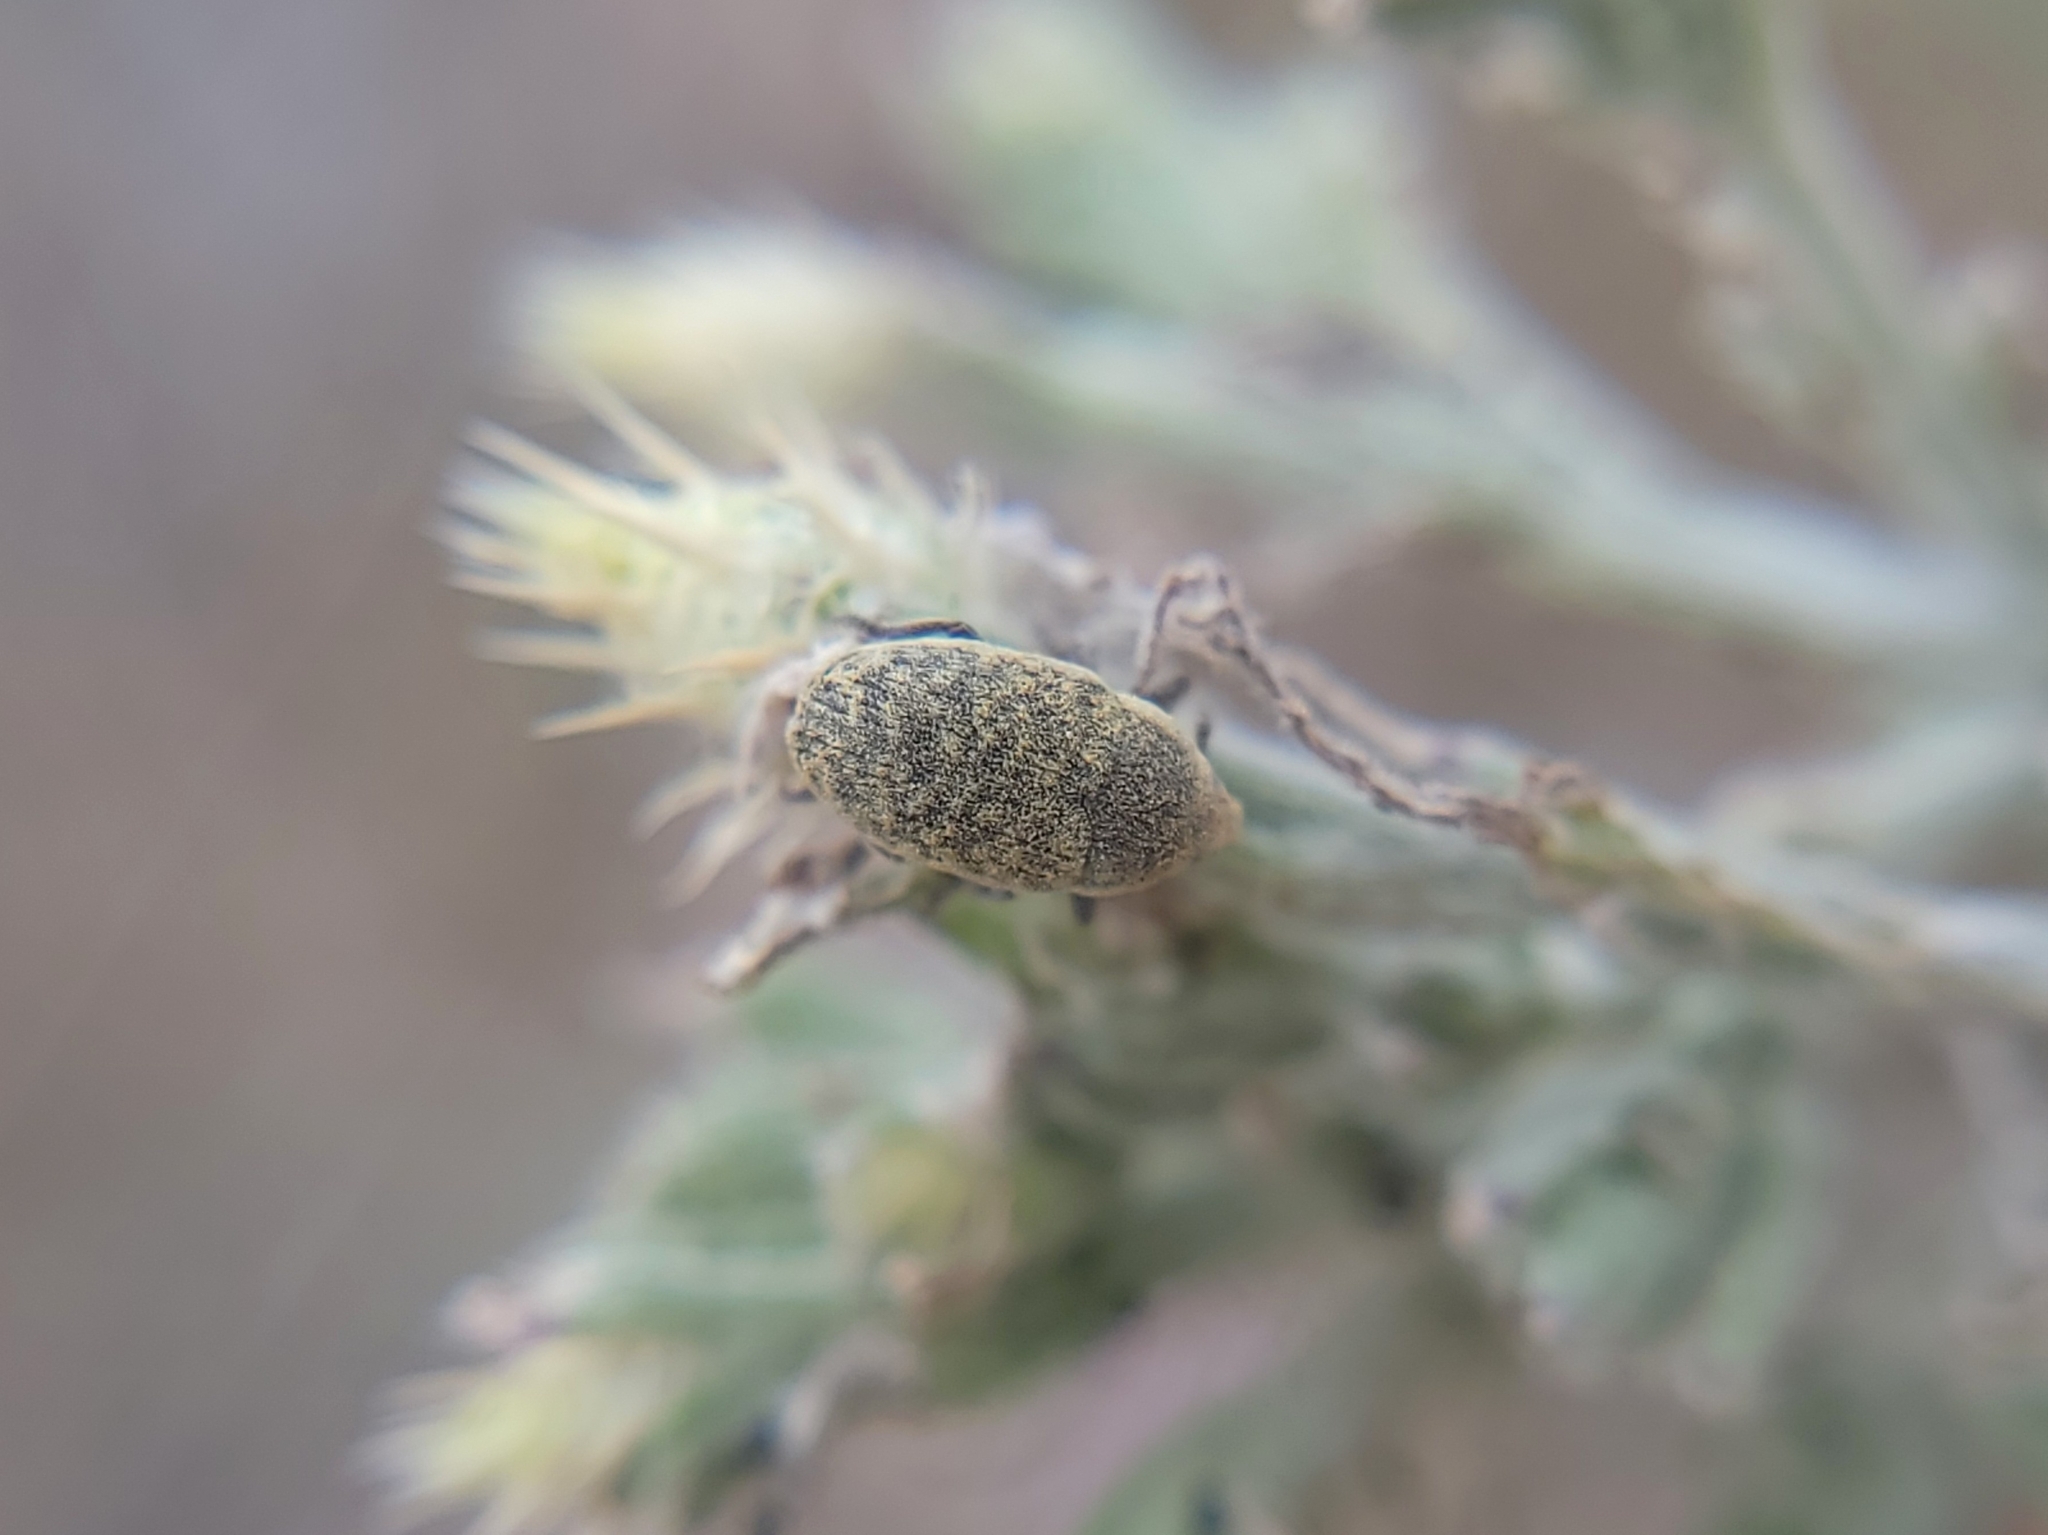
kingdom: Animalia
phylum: Arthropoda
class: Insecta
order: Coleoptera
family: Curculionidae
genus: Larinus
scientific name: Larinus minutus
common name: Weevil
